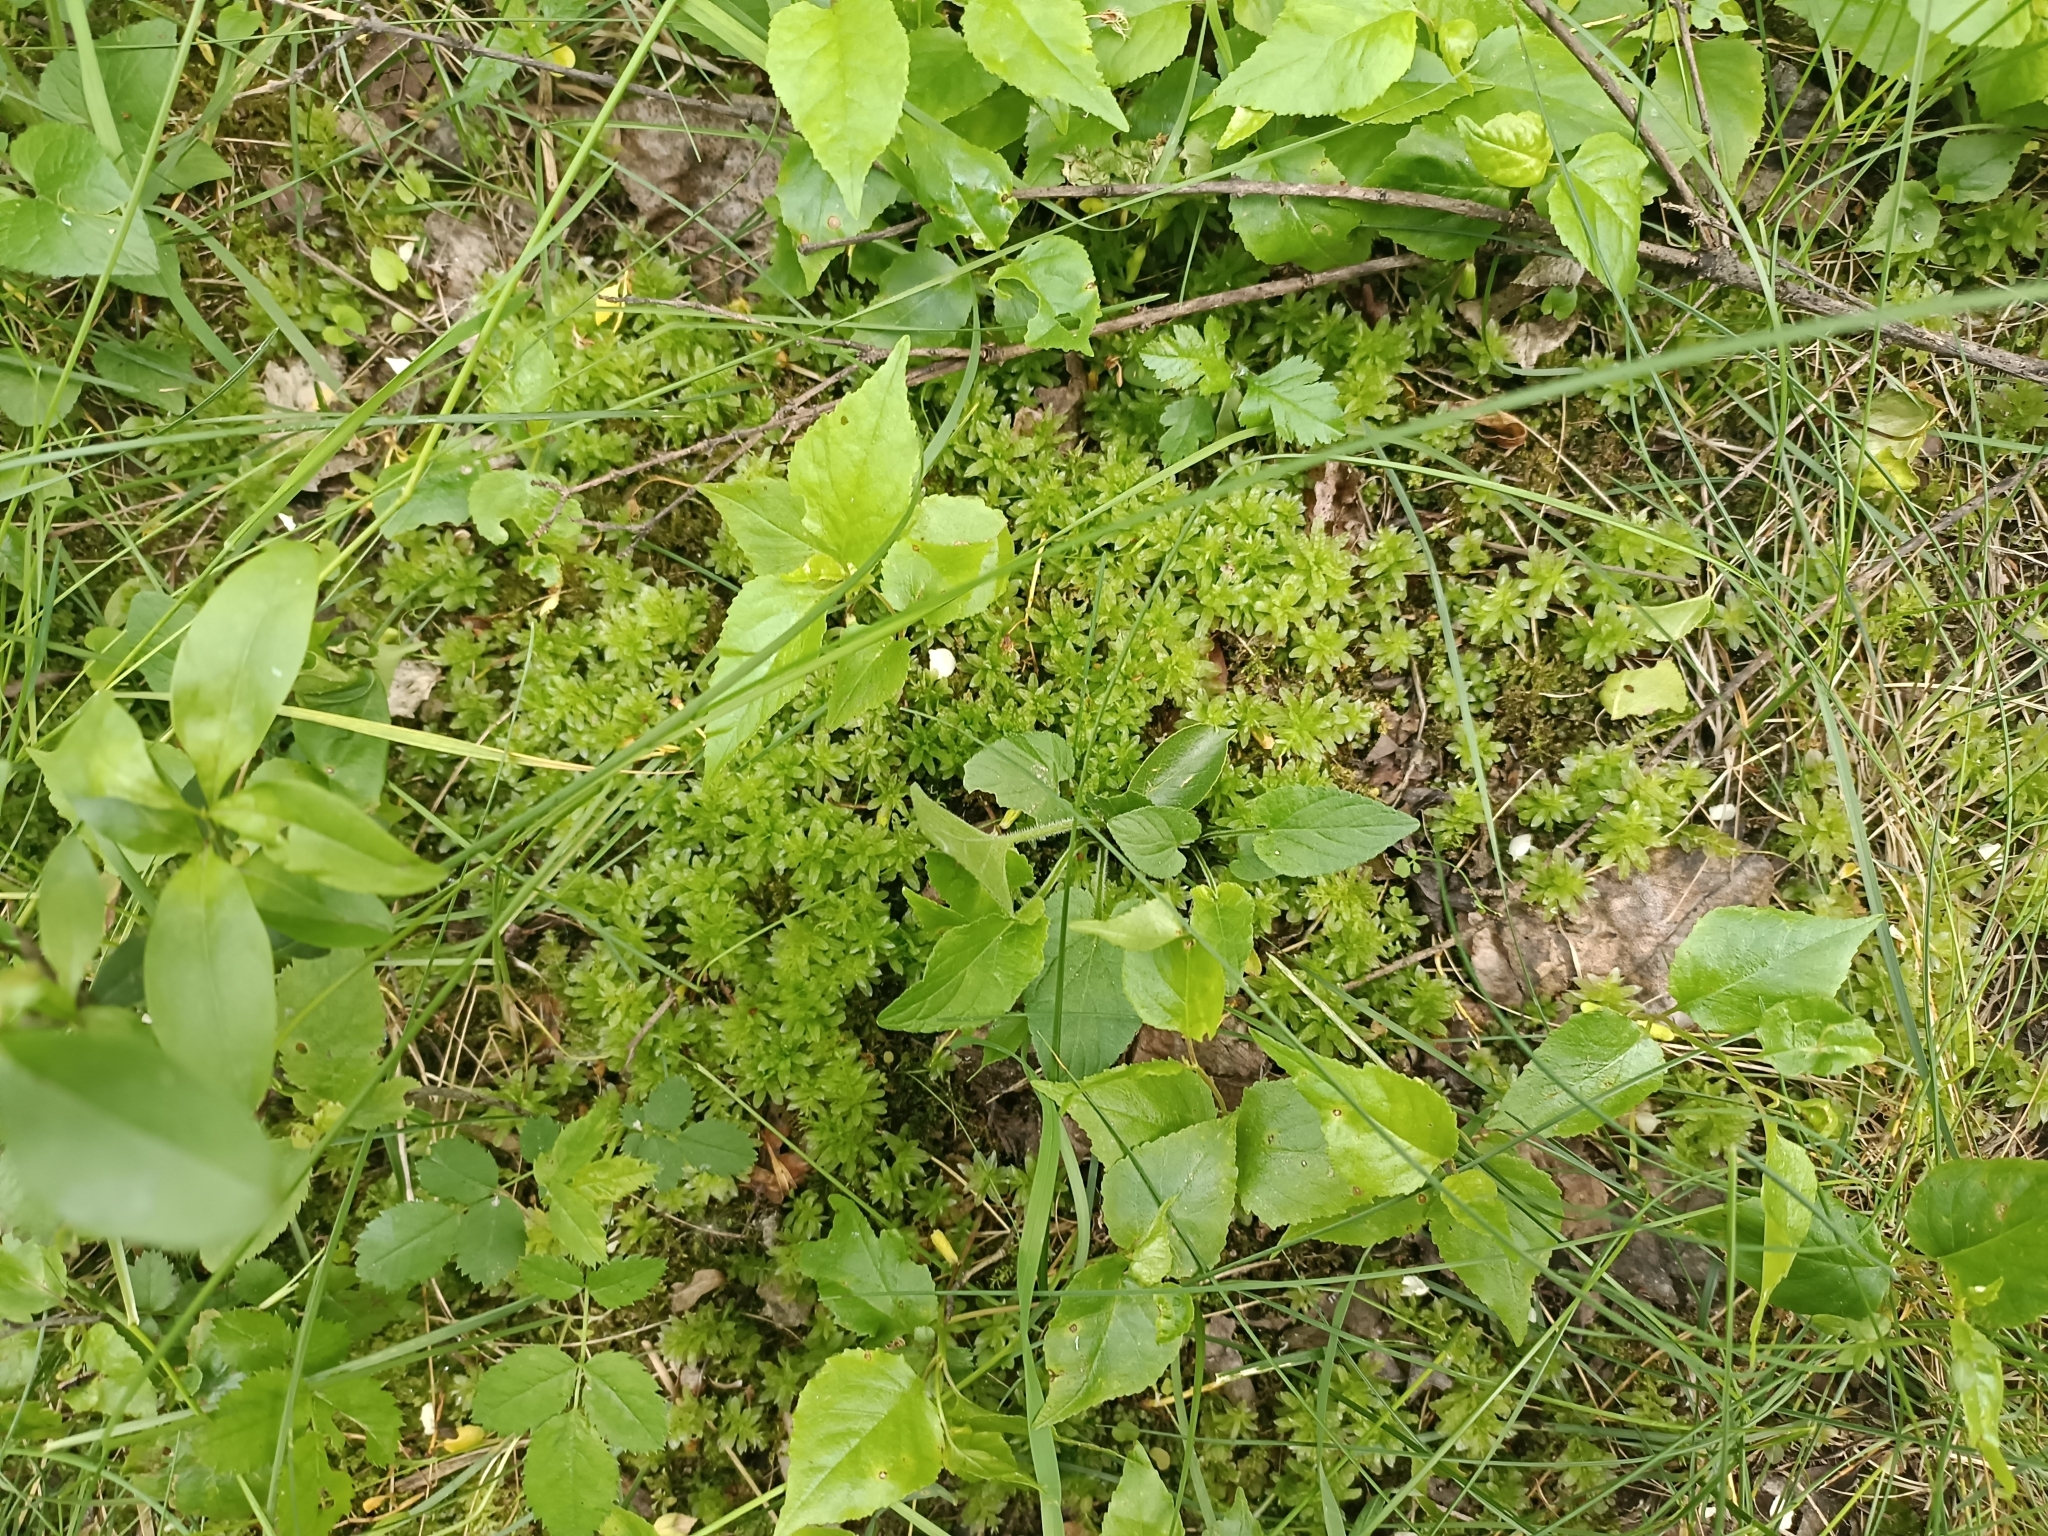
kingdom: Plantae
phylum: Bryophyta
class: Bryopsida
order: Bryales
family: Mniaceae
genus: Plagiomnium
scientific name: Plagiomnium undulatum
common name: Hart's-tongue thyme-moss
